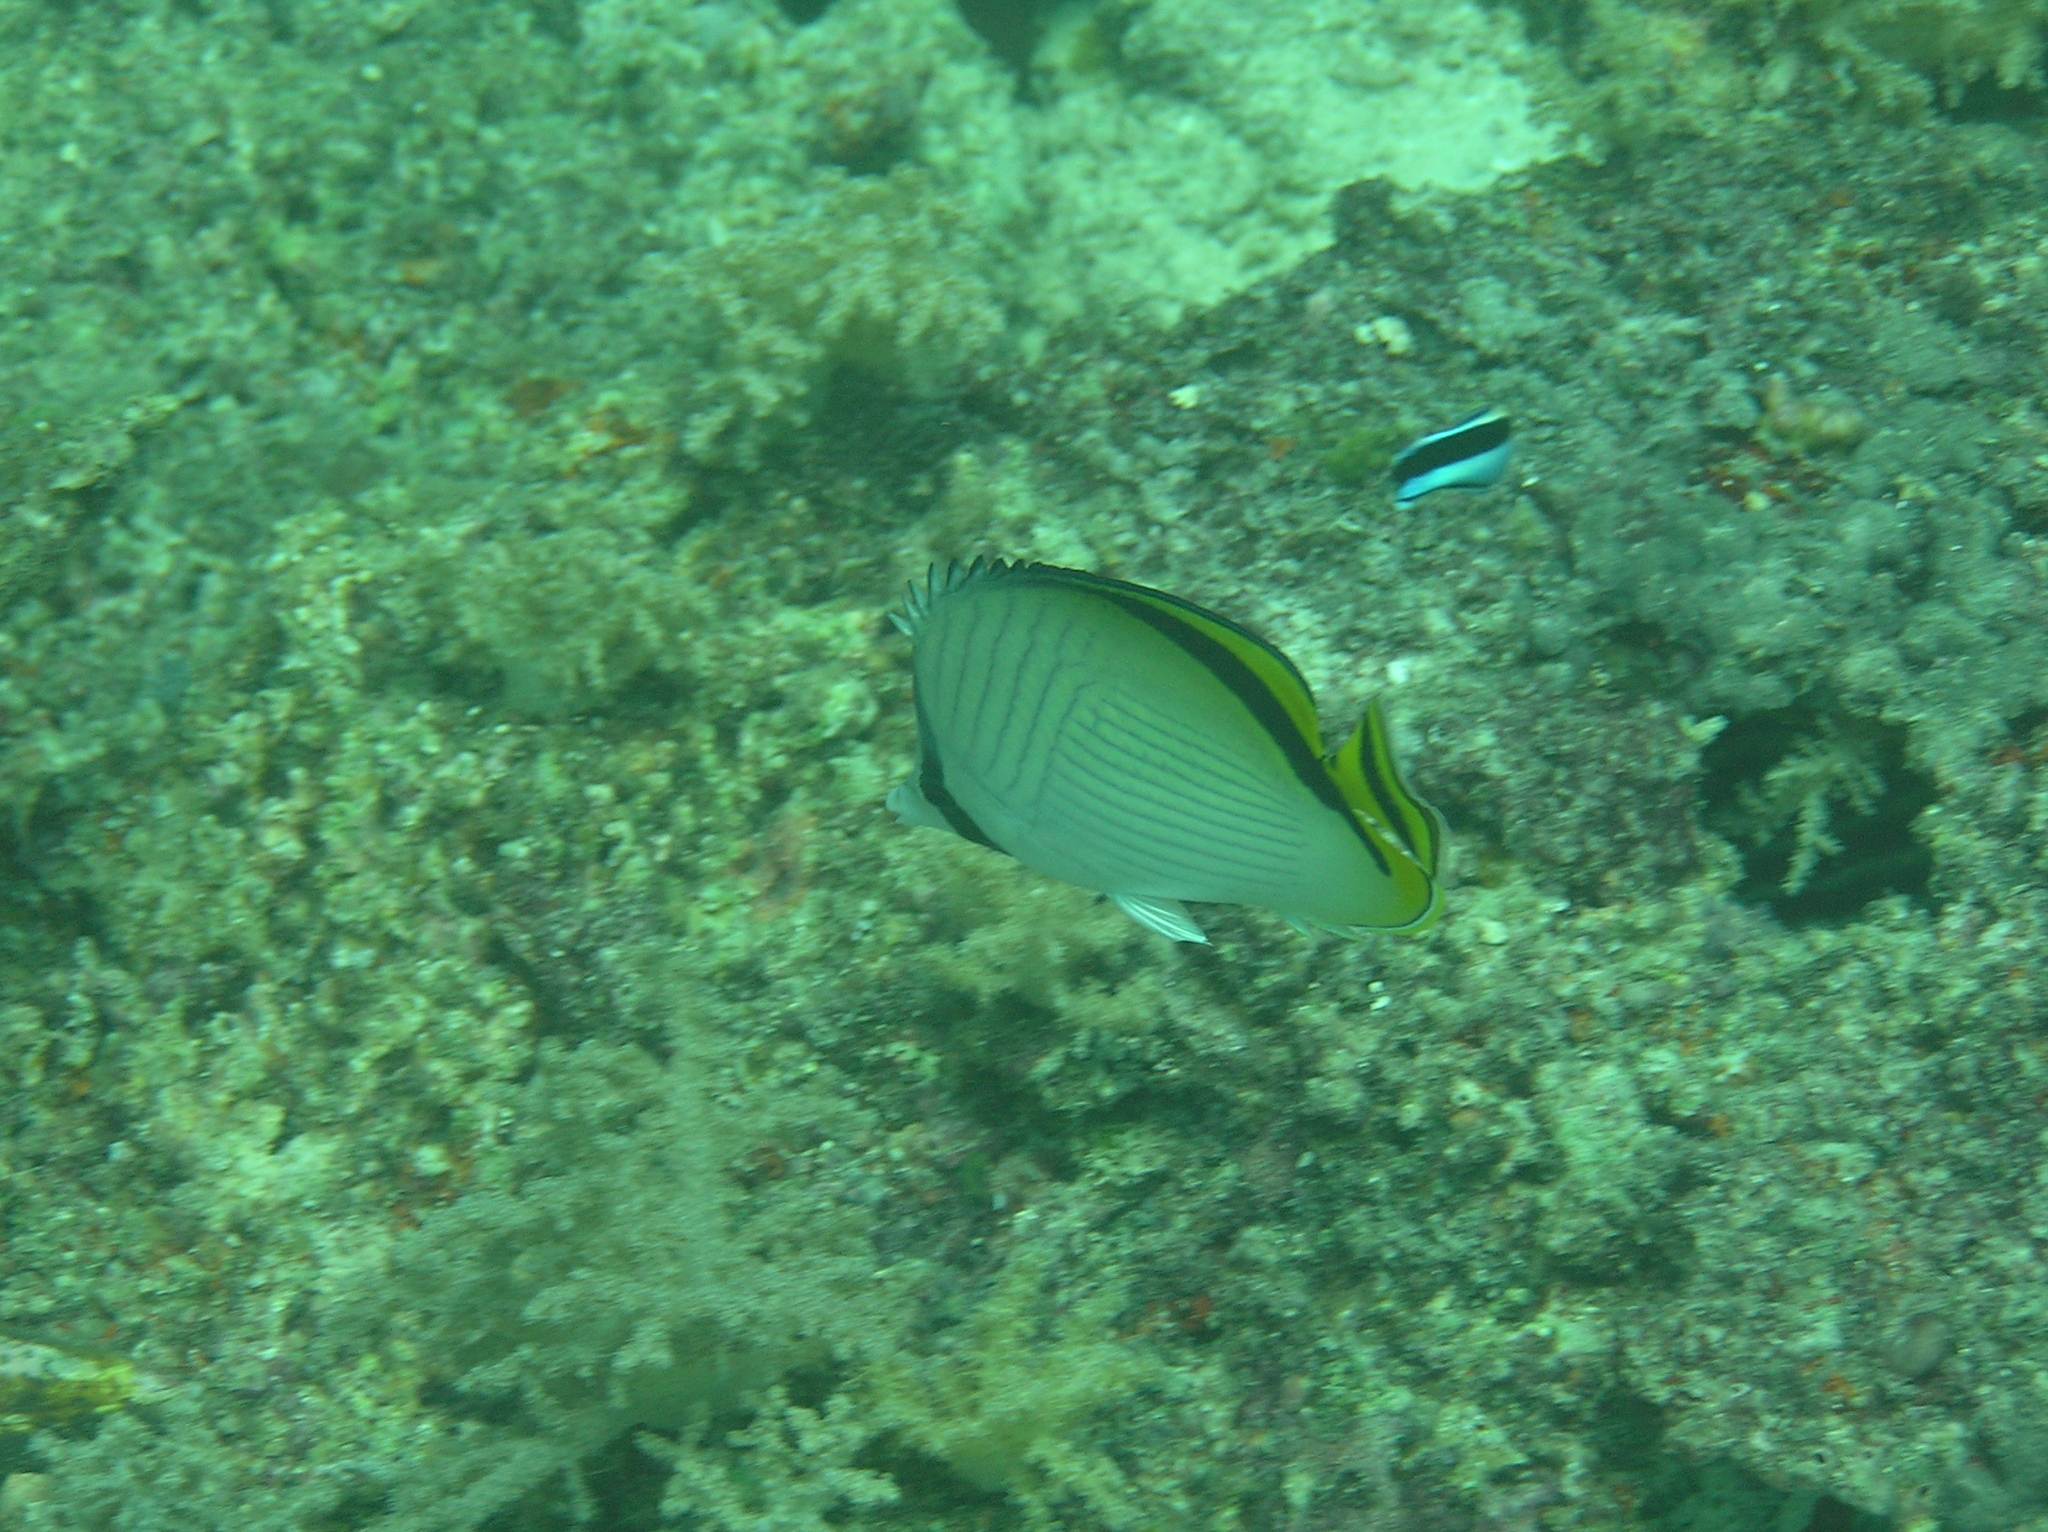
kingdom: Animalia
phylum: Chordata
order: Perciformes
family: Chaetodontidae
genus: Chaetodon
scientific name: Chaetodon vagabundus
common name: Vagabond butterflyfish
